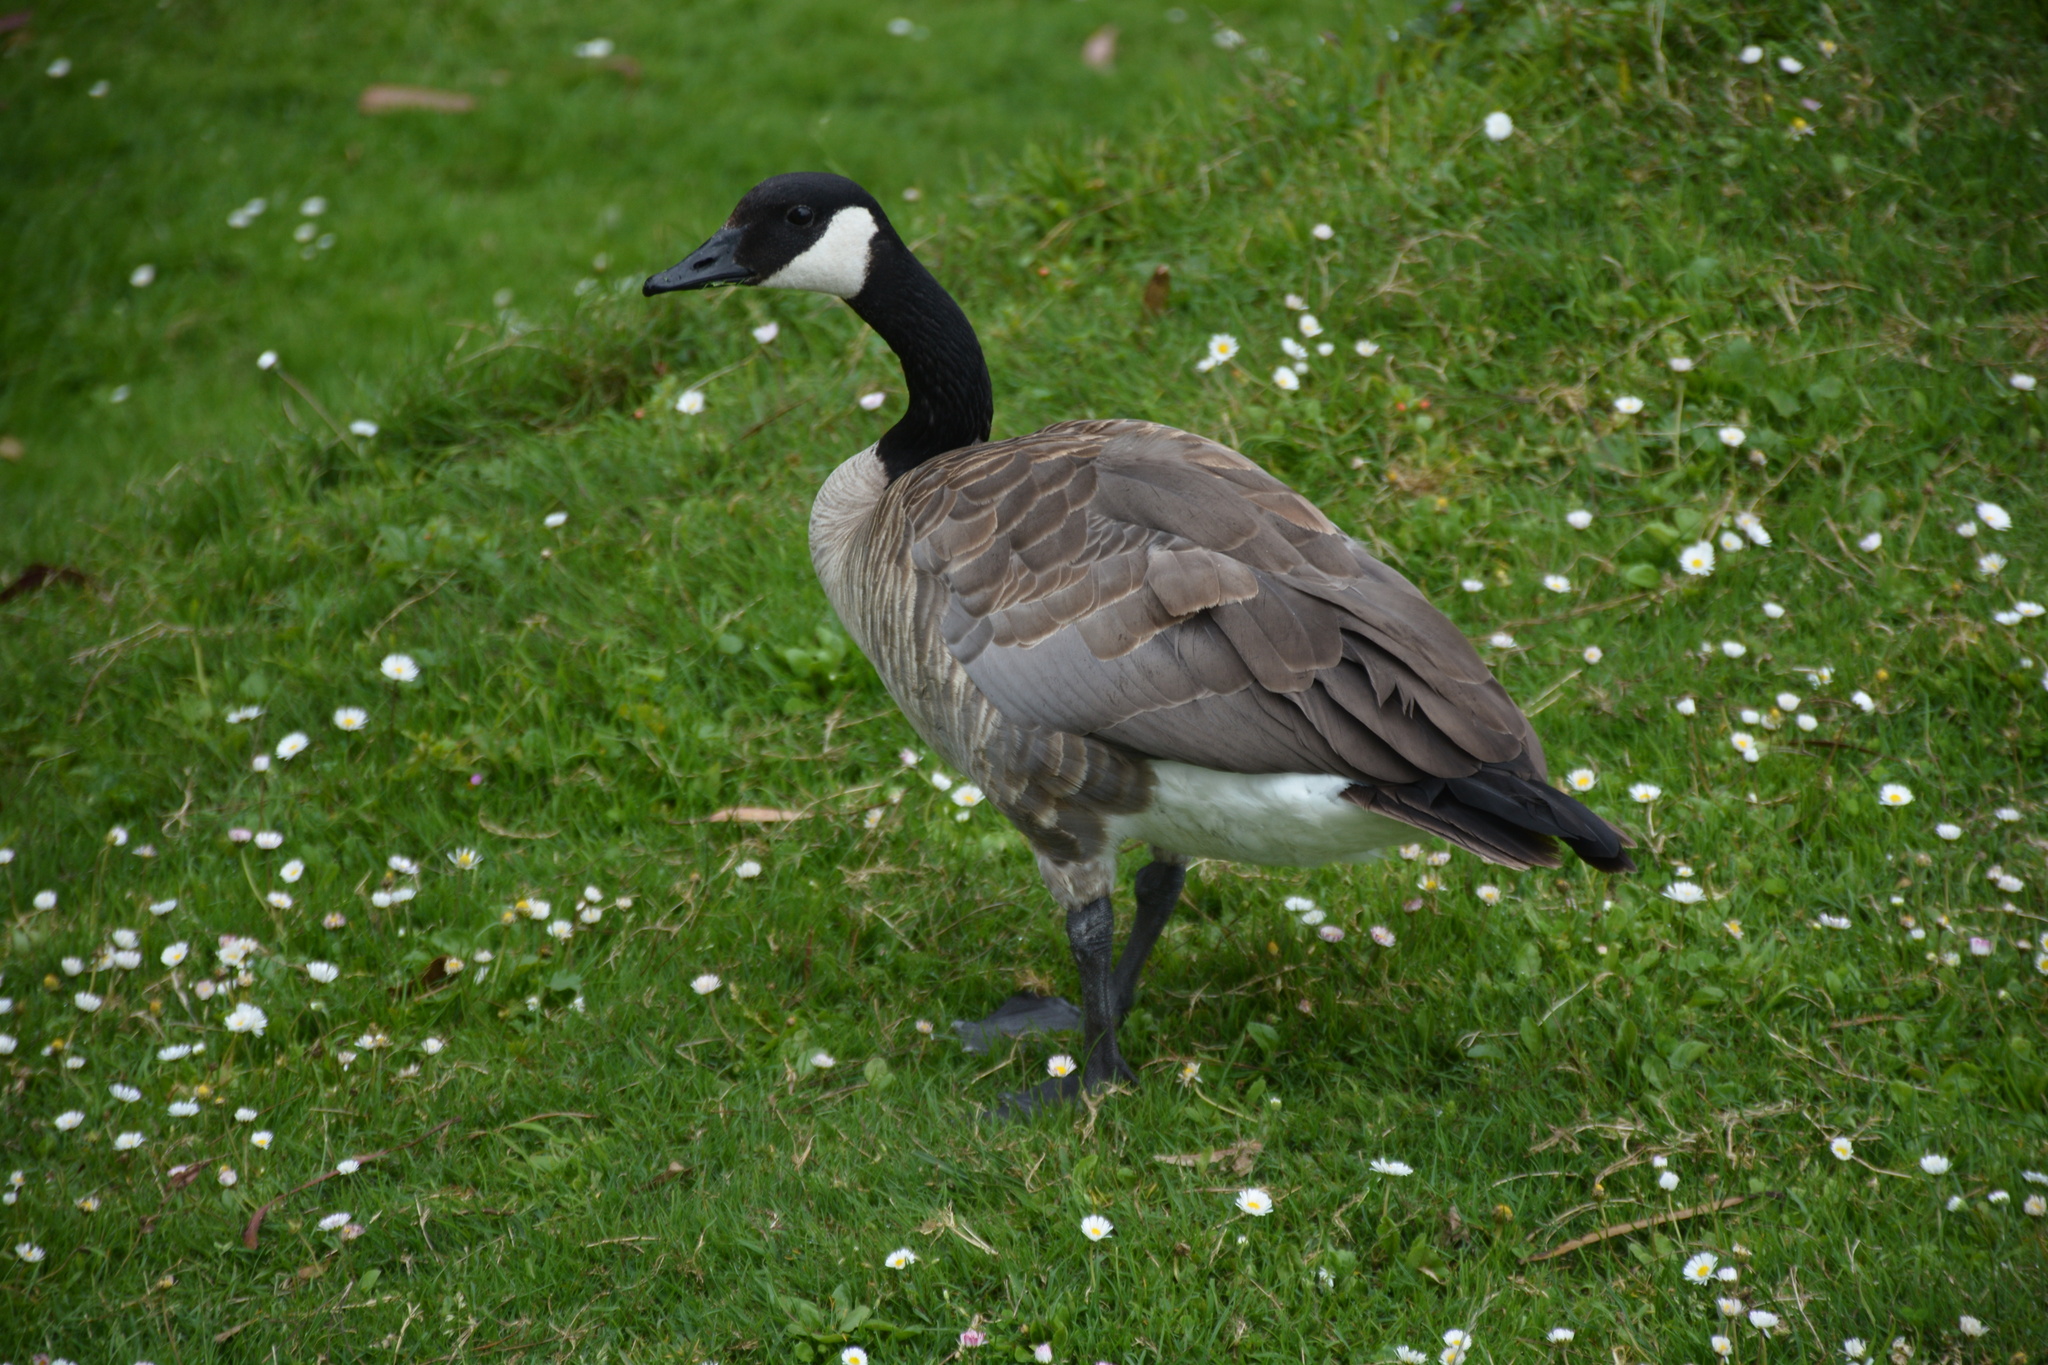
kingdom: Animalia
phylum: Chordata
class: Aves
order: Anseriformes
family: Anatidae
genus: Branta
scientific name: Branta canadensis
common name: Canada goose
